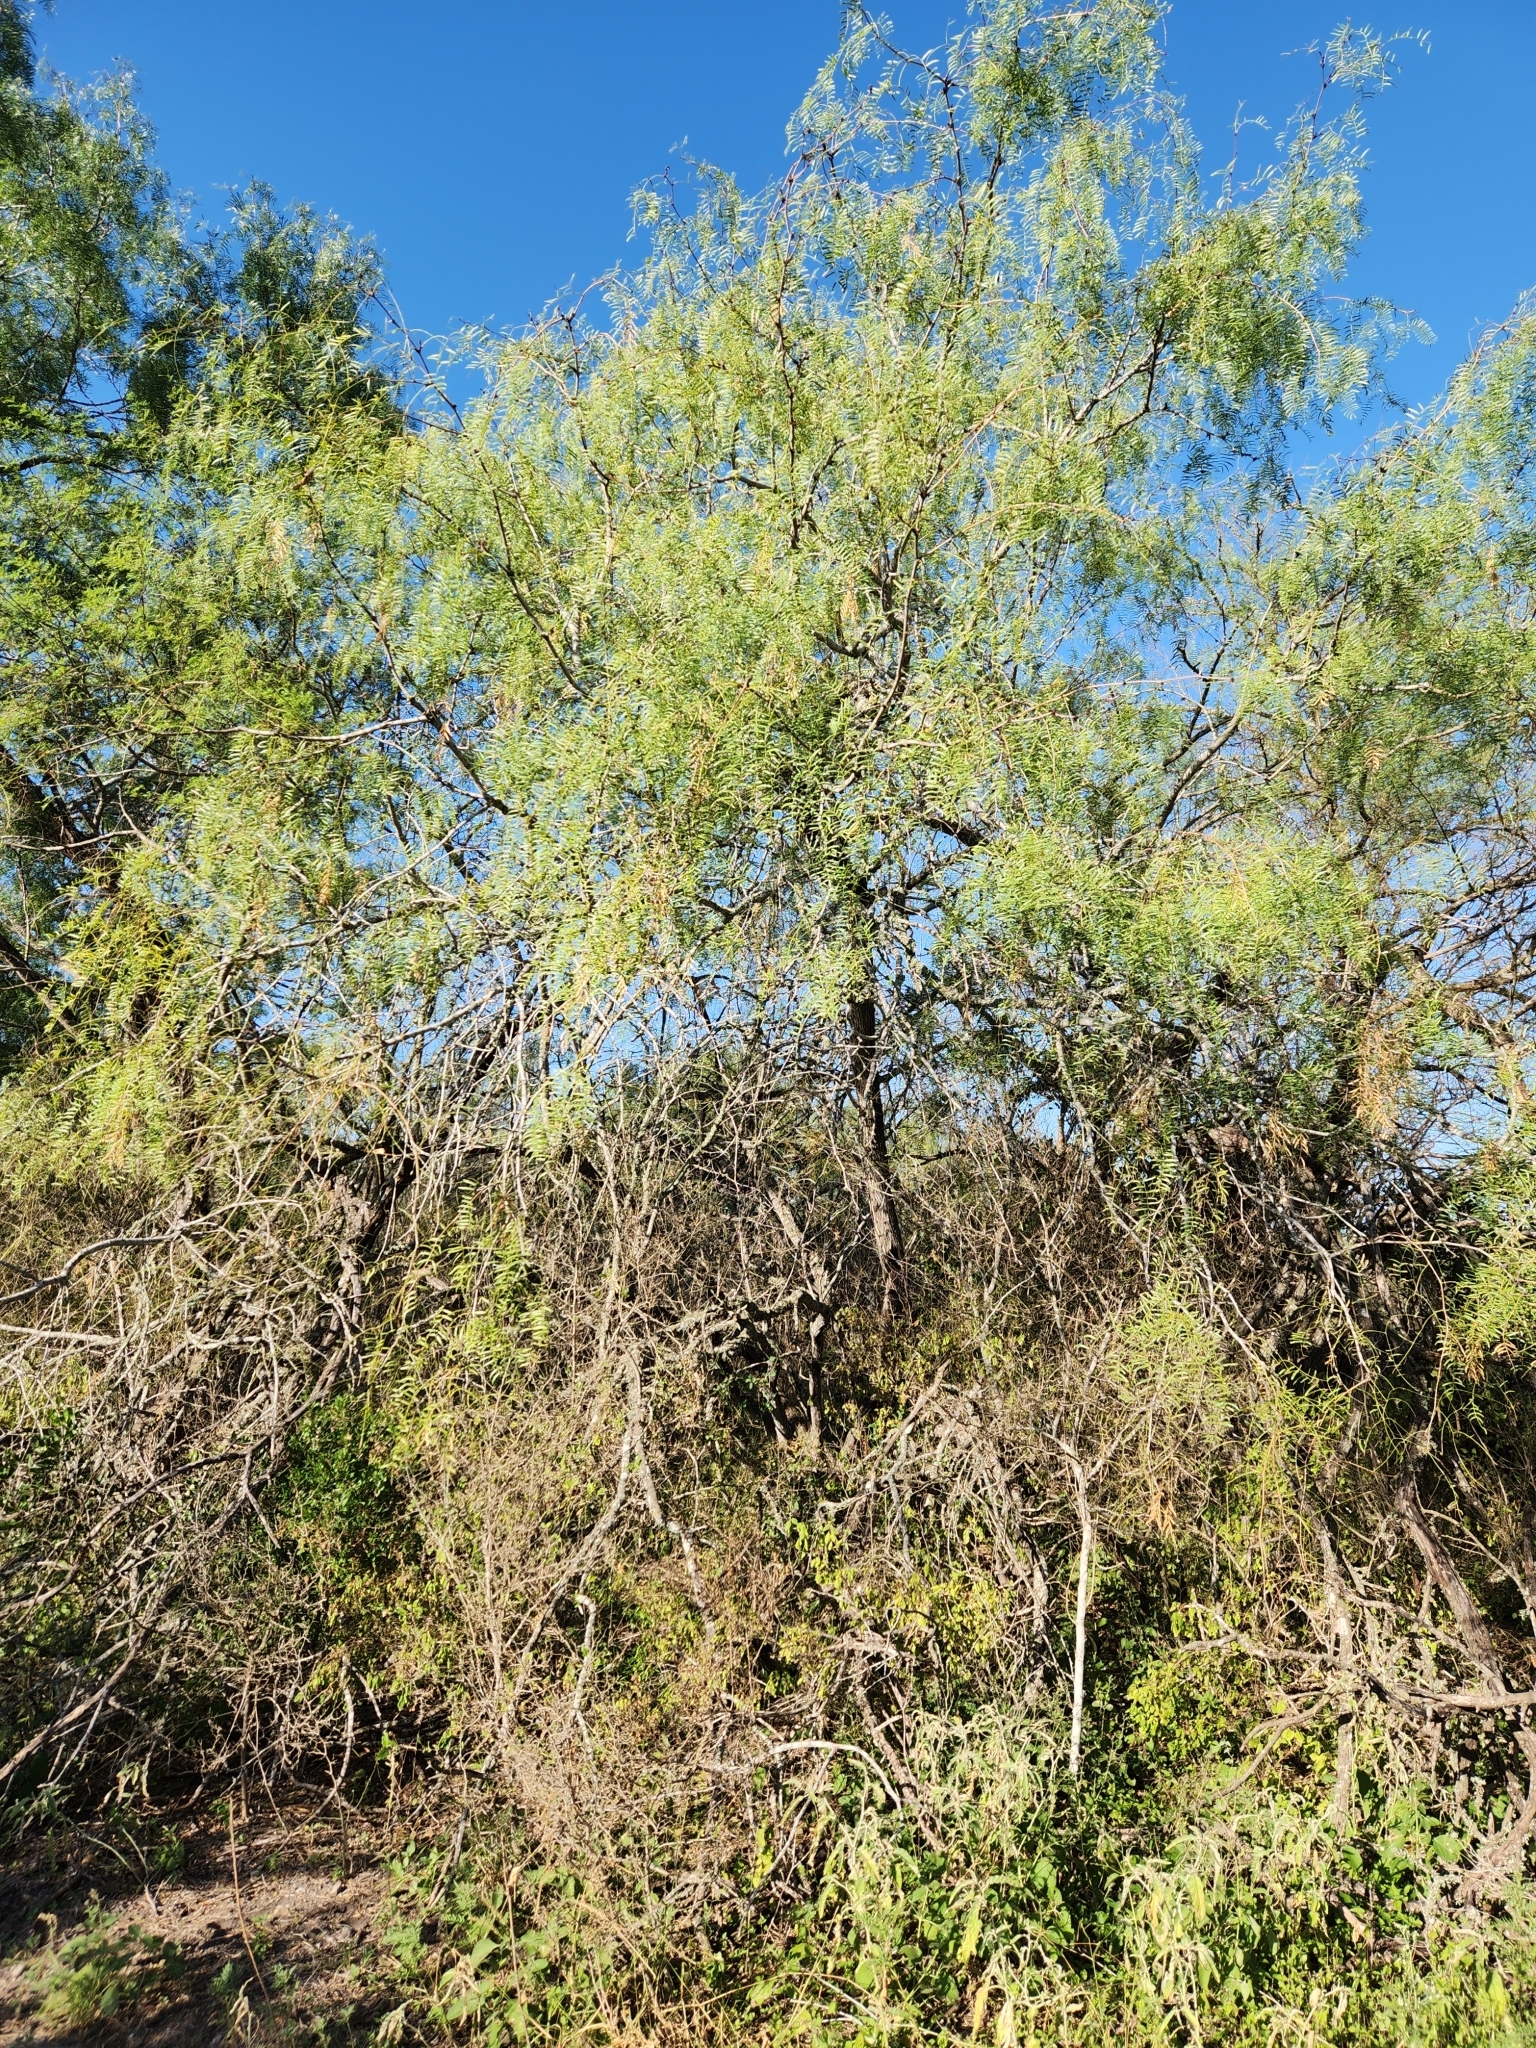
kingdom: Plantae
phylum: Tracheophyta
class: Magnoliopsida
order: Fabales
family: Fabaceae
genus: Prosopis
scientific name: Prosopis glandulosa
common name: Honey mesquite
